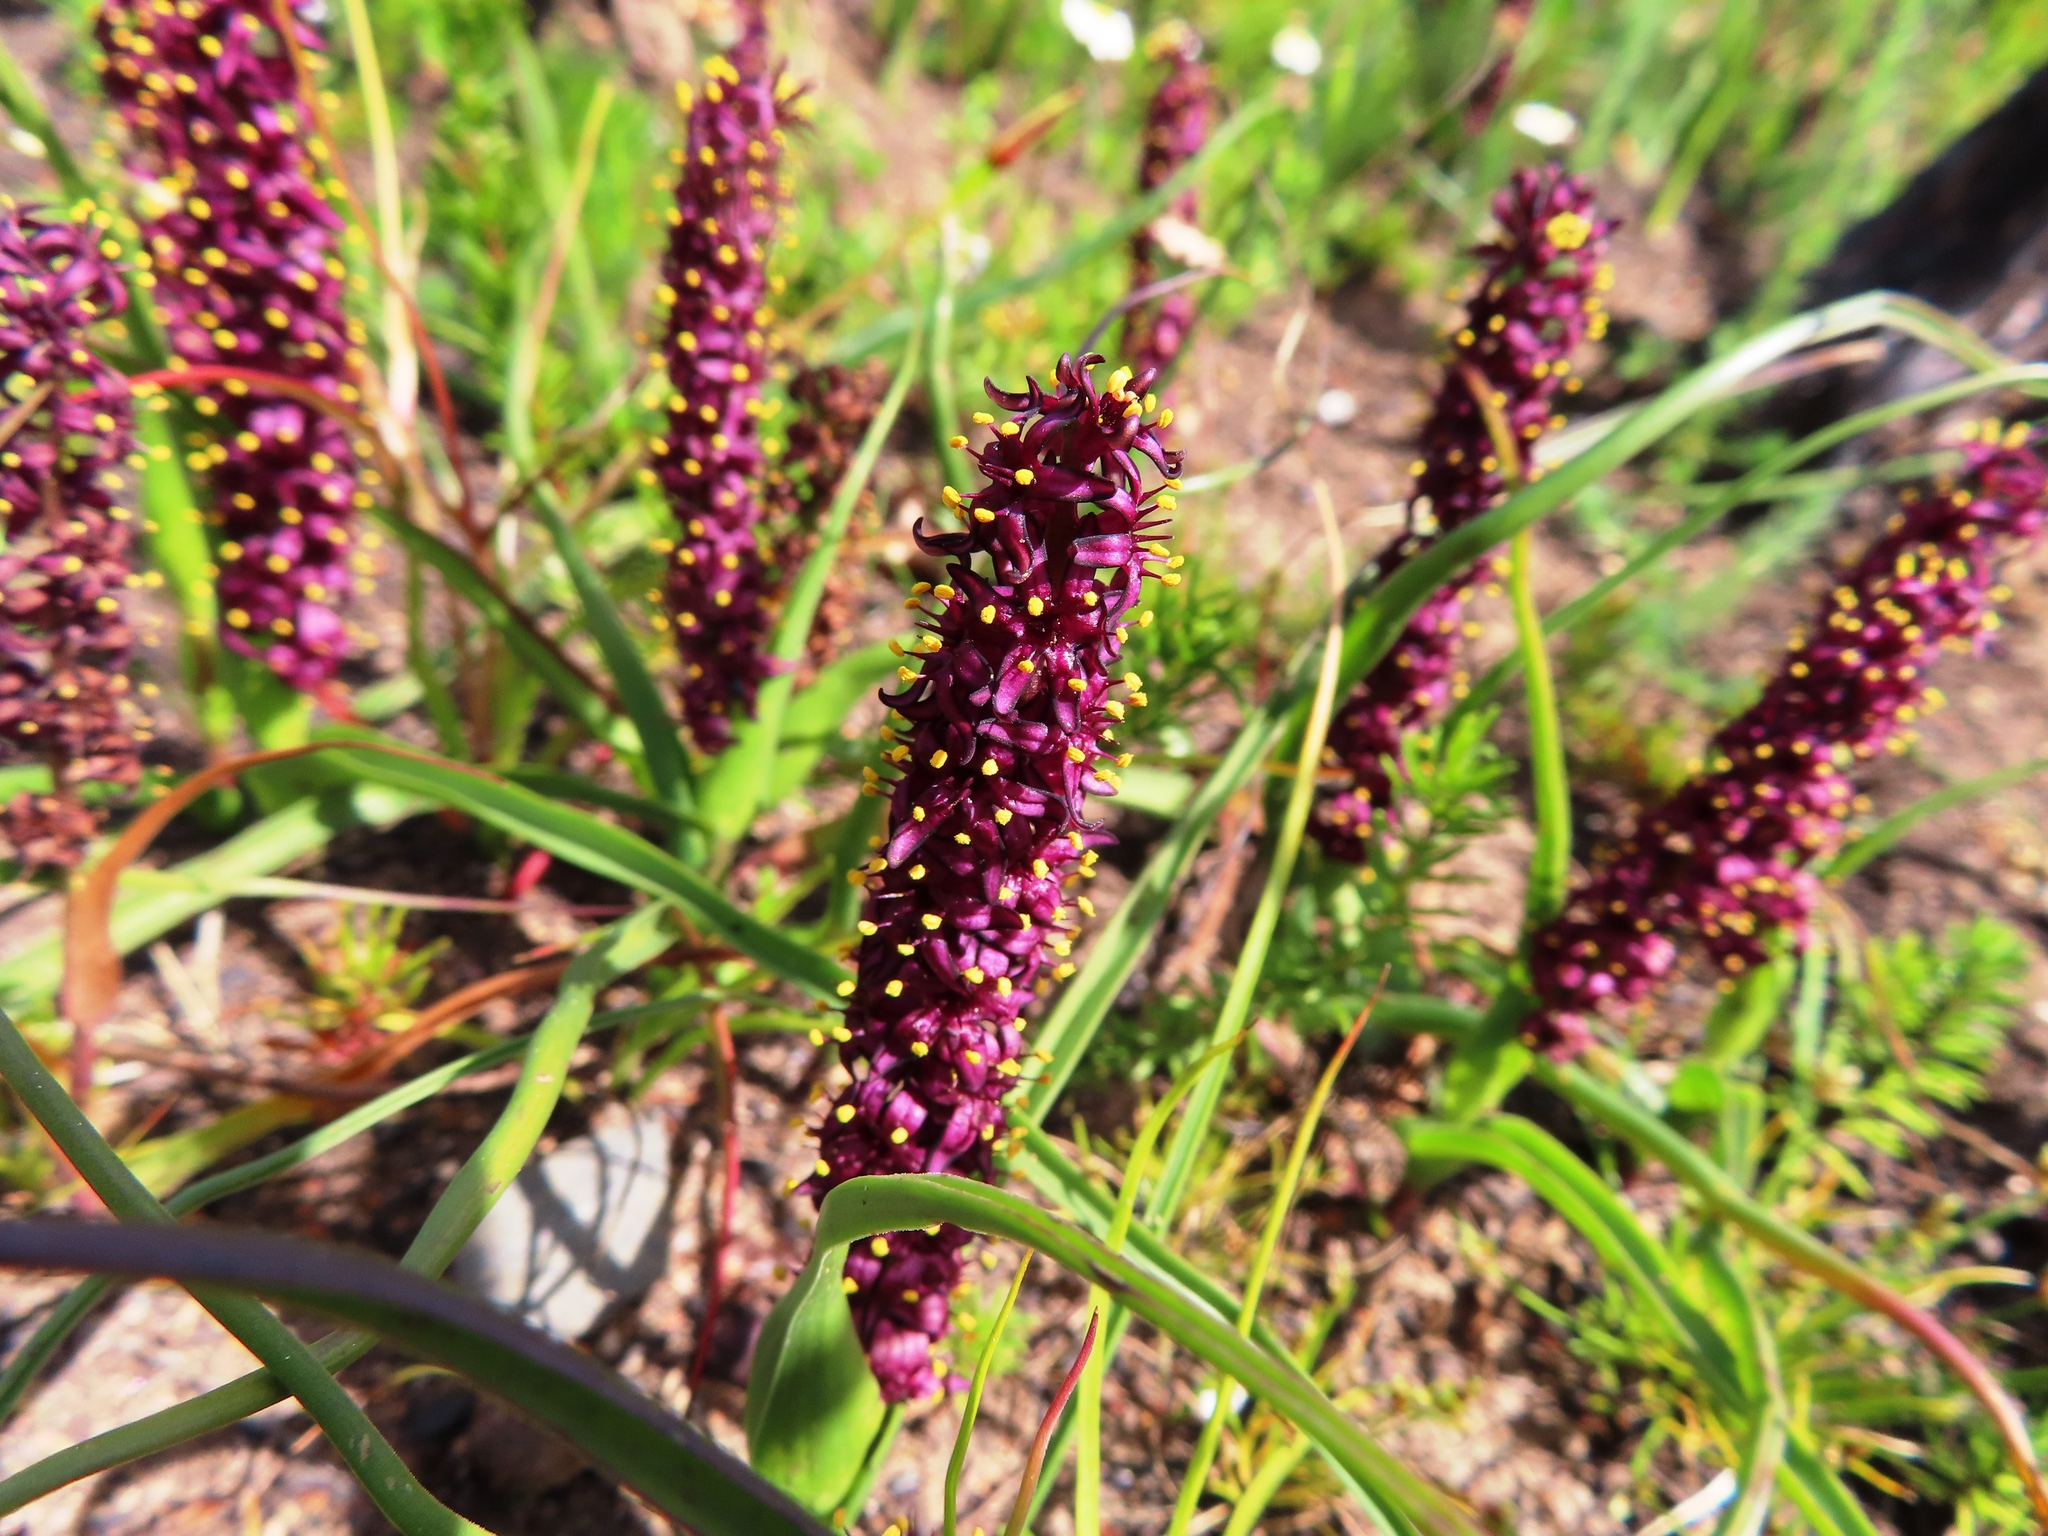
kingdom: Plantae
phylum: Tracheophyta
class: Liliopsida
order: Liliales
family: Colchicaceae
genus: Wurmbea
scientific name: Wurmbea recurva
